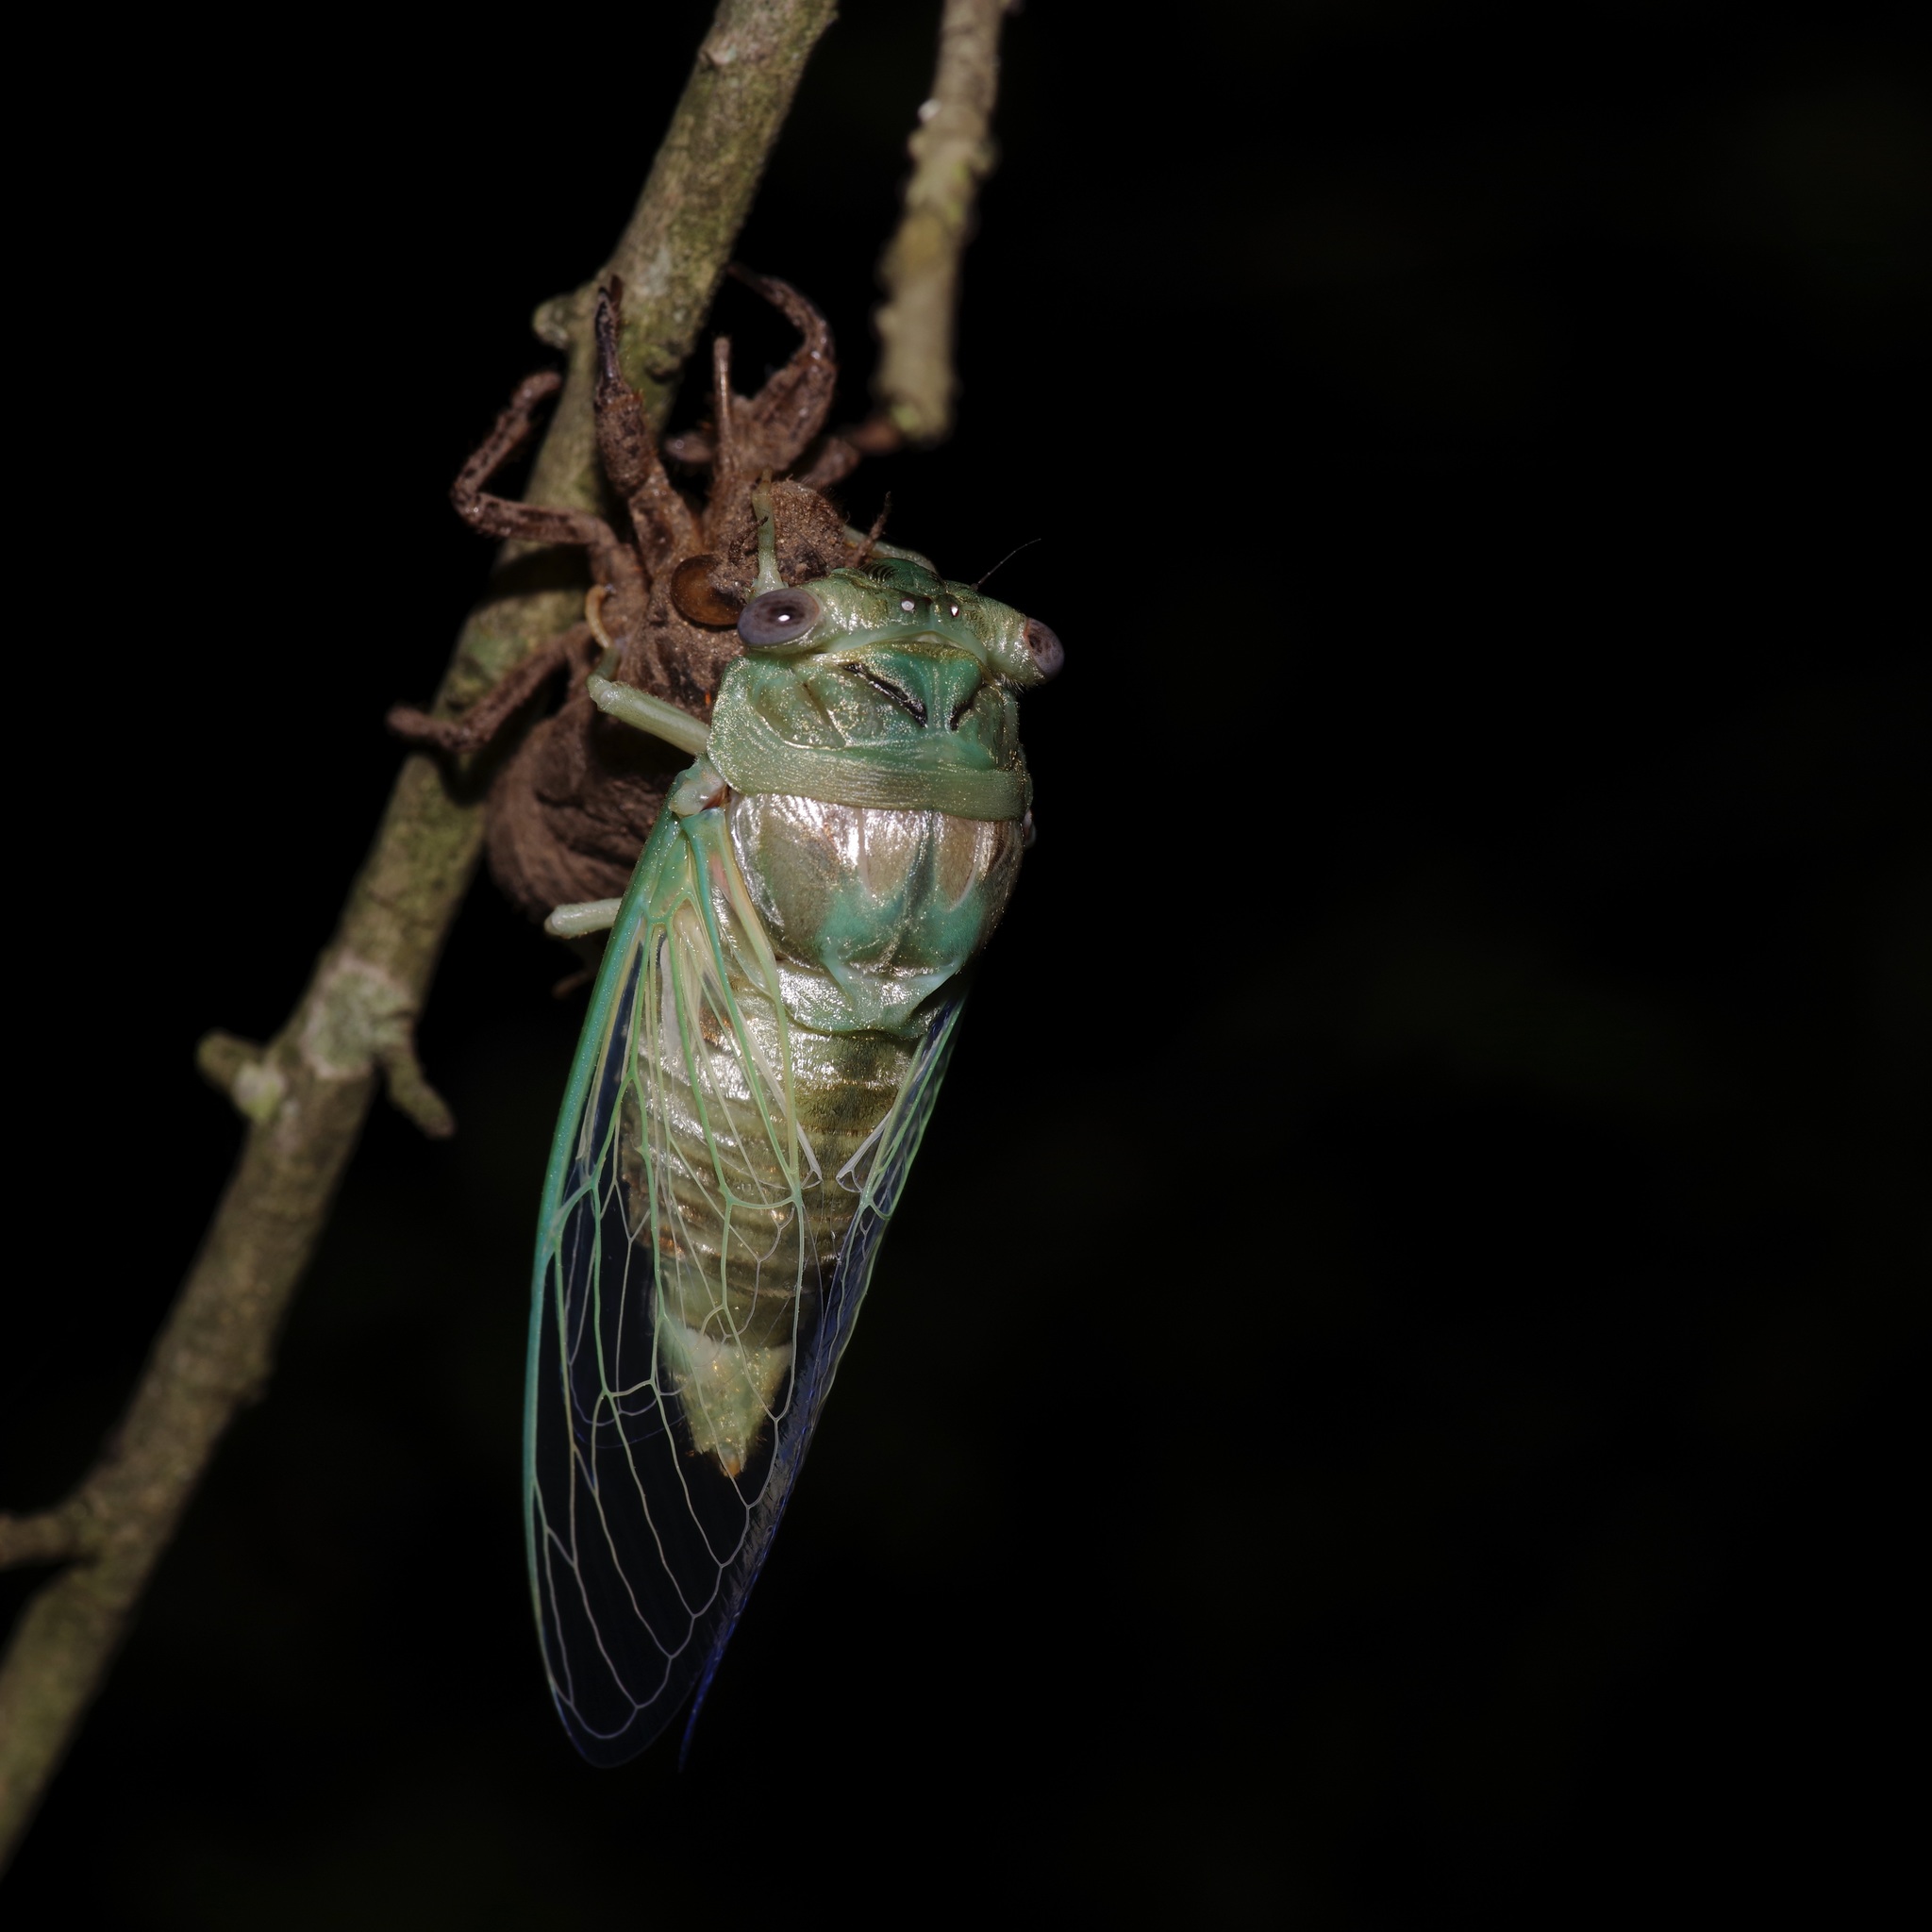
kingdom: Animalia
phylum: Arthropoda
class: Insecta
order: Hemiptera
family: Cicadidae
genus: Megatibicen
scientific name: Megatibicen resh
